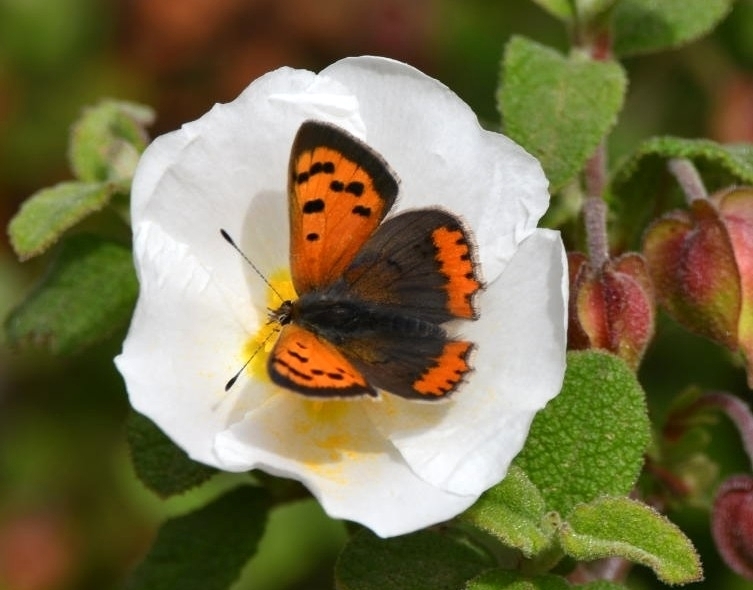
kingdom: Animalia
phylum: Arthropoda
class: Insecta
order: Lepidoptera
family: Lycaenidae
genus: Lycaena
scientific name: Lycaena phlaeas
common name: Small copper
